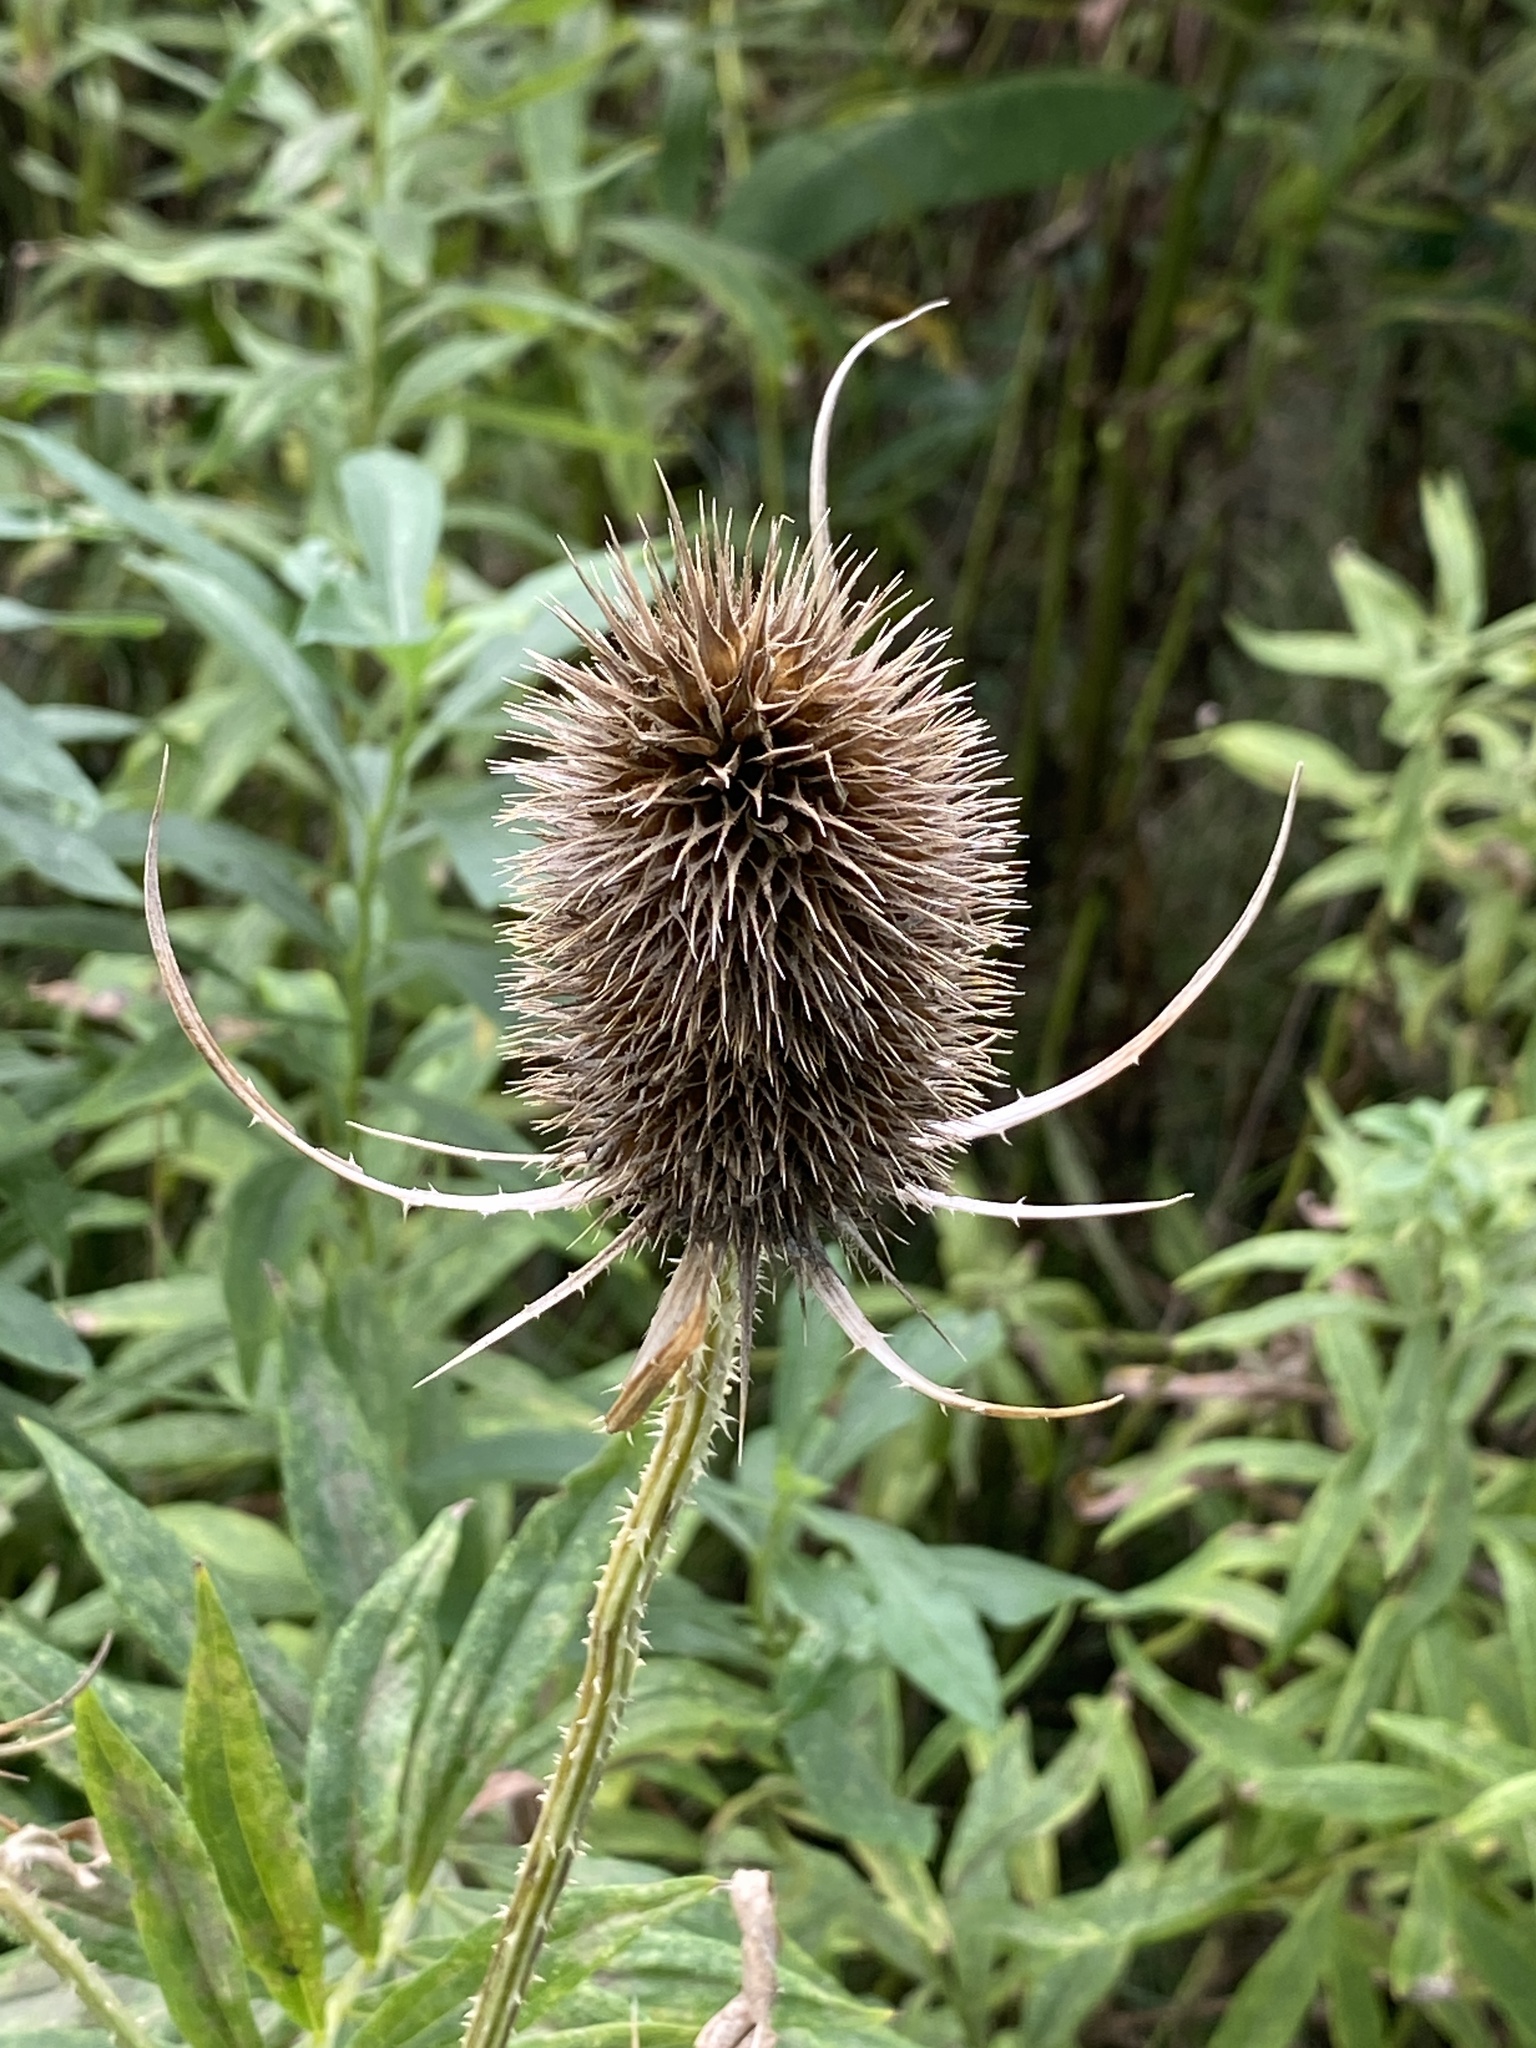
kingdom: Plantae
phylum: Tracheophyta
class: Magnoliopsida
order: Dipsacales
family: Caprifoliaceae
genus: Dipsacus
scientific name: Dipsacus fullonum
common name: Teasel
